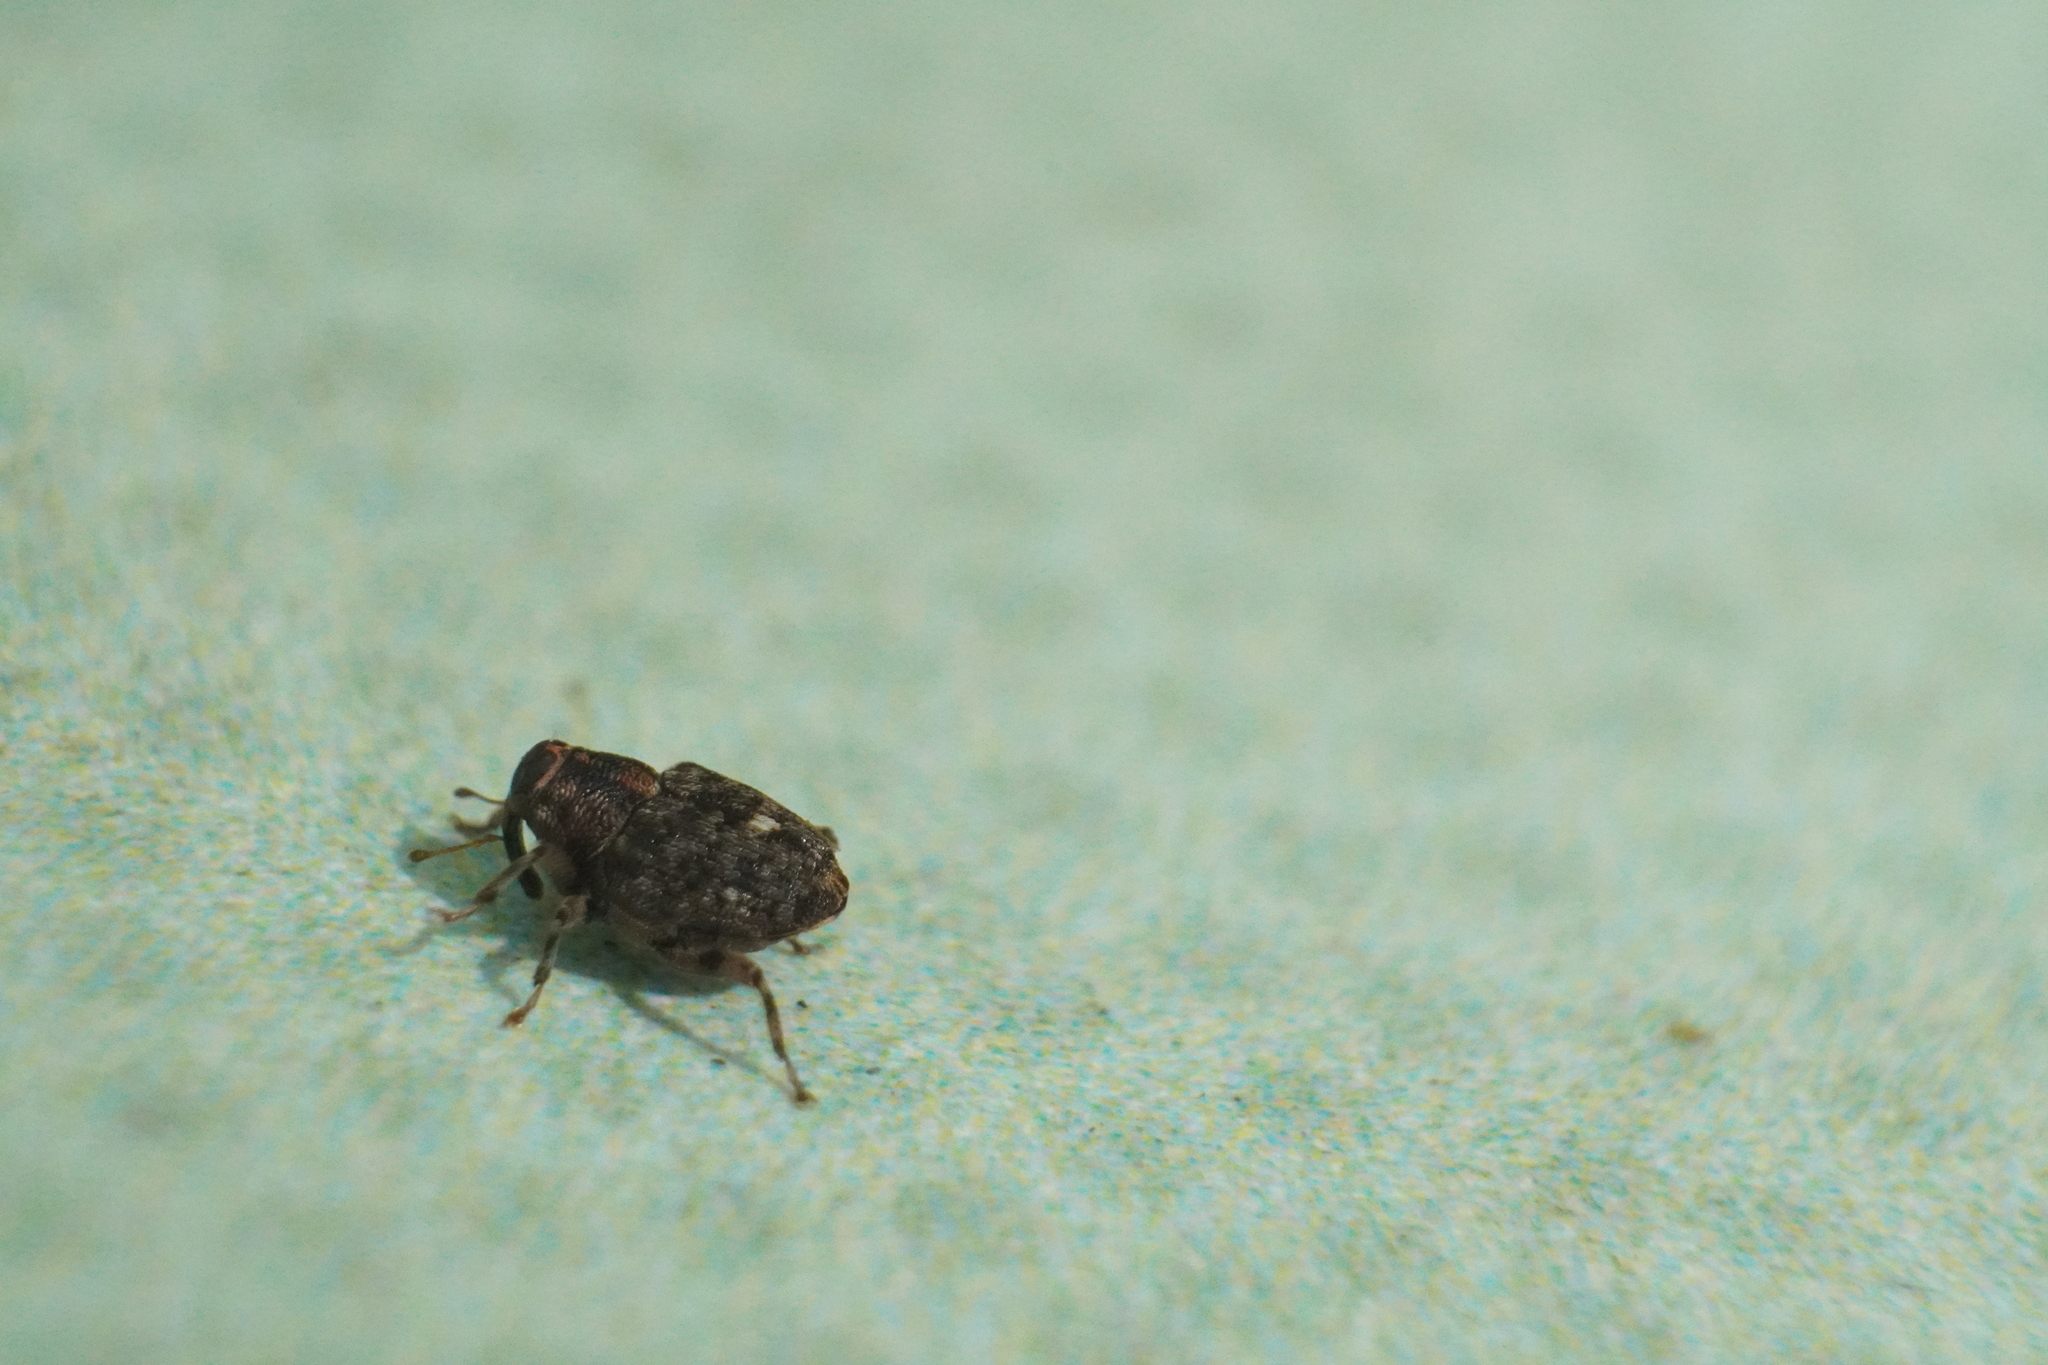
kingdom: Animalia
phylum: Arthropoda
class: Insecta
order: Coleoptera
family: Curculionidae
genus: Lechriops
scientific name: Lechriops oculatus
